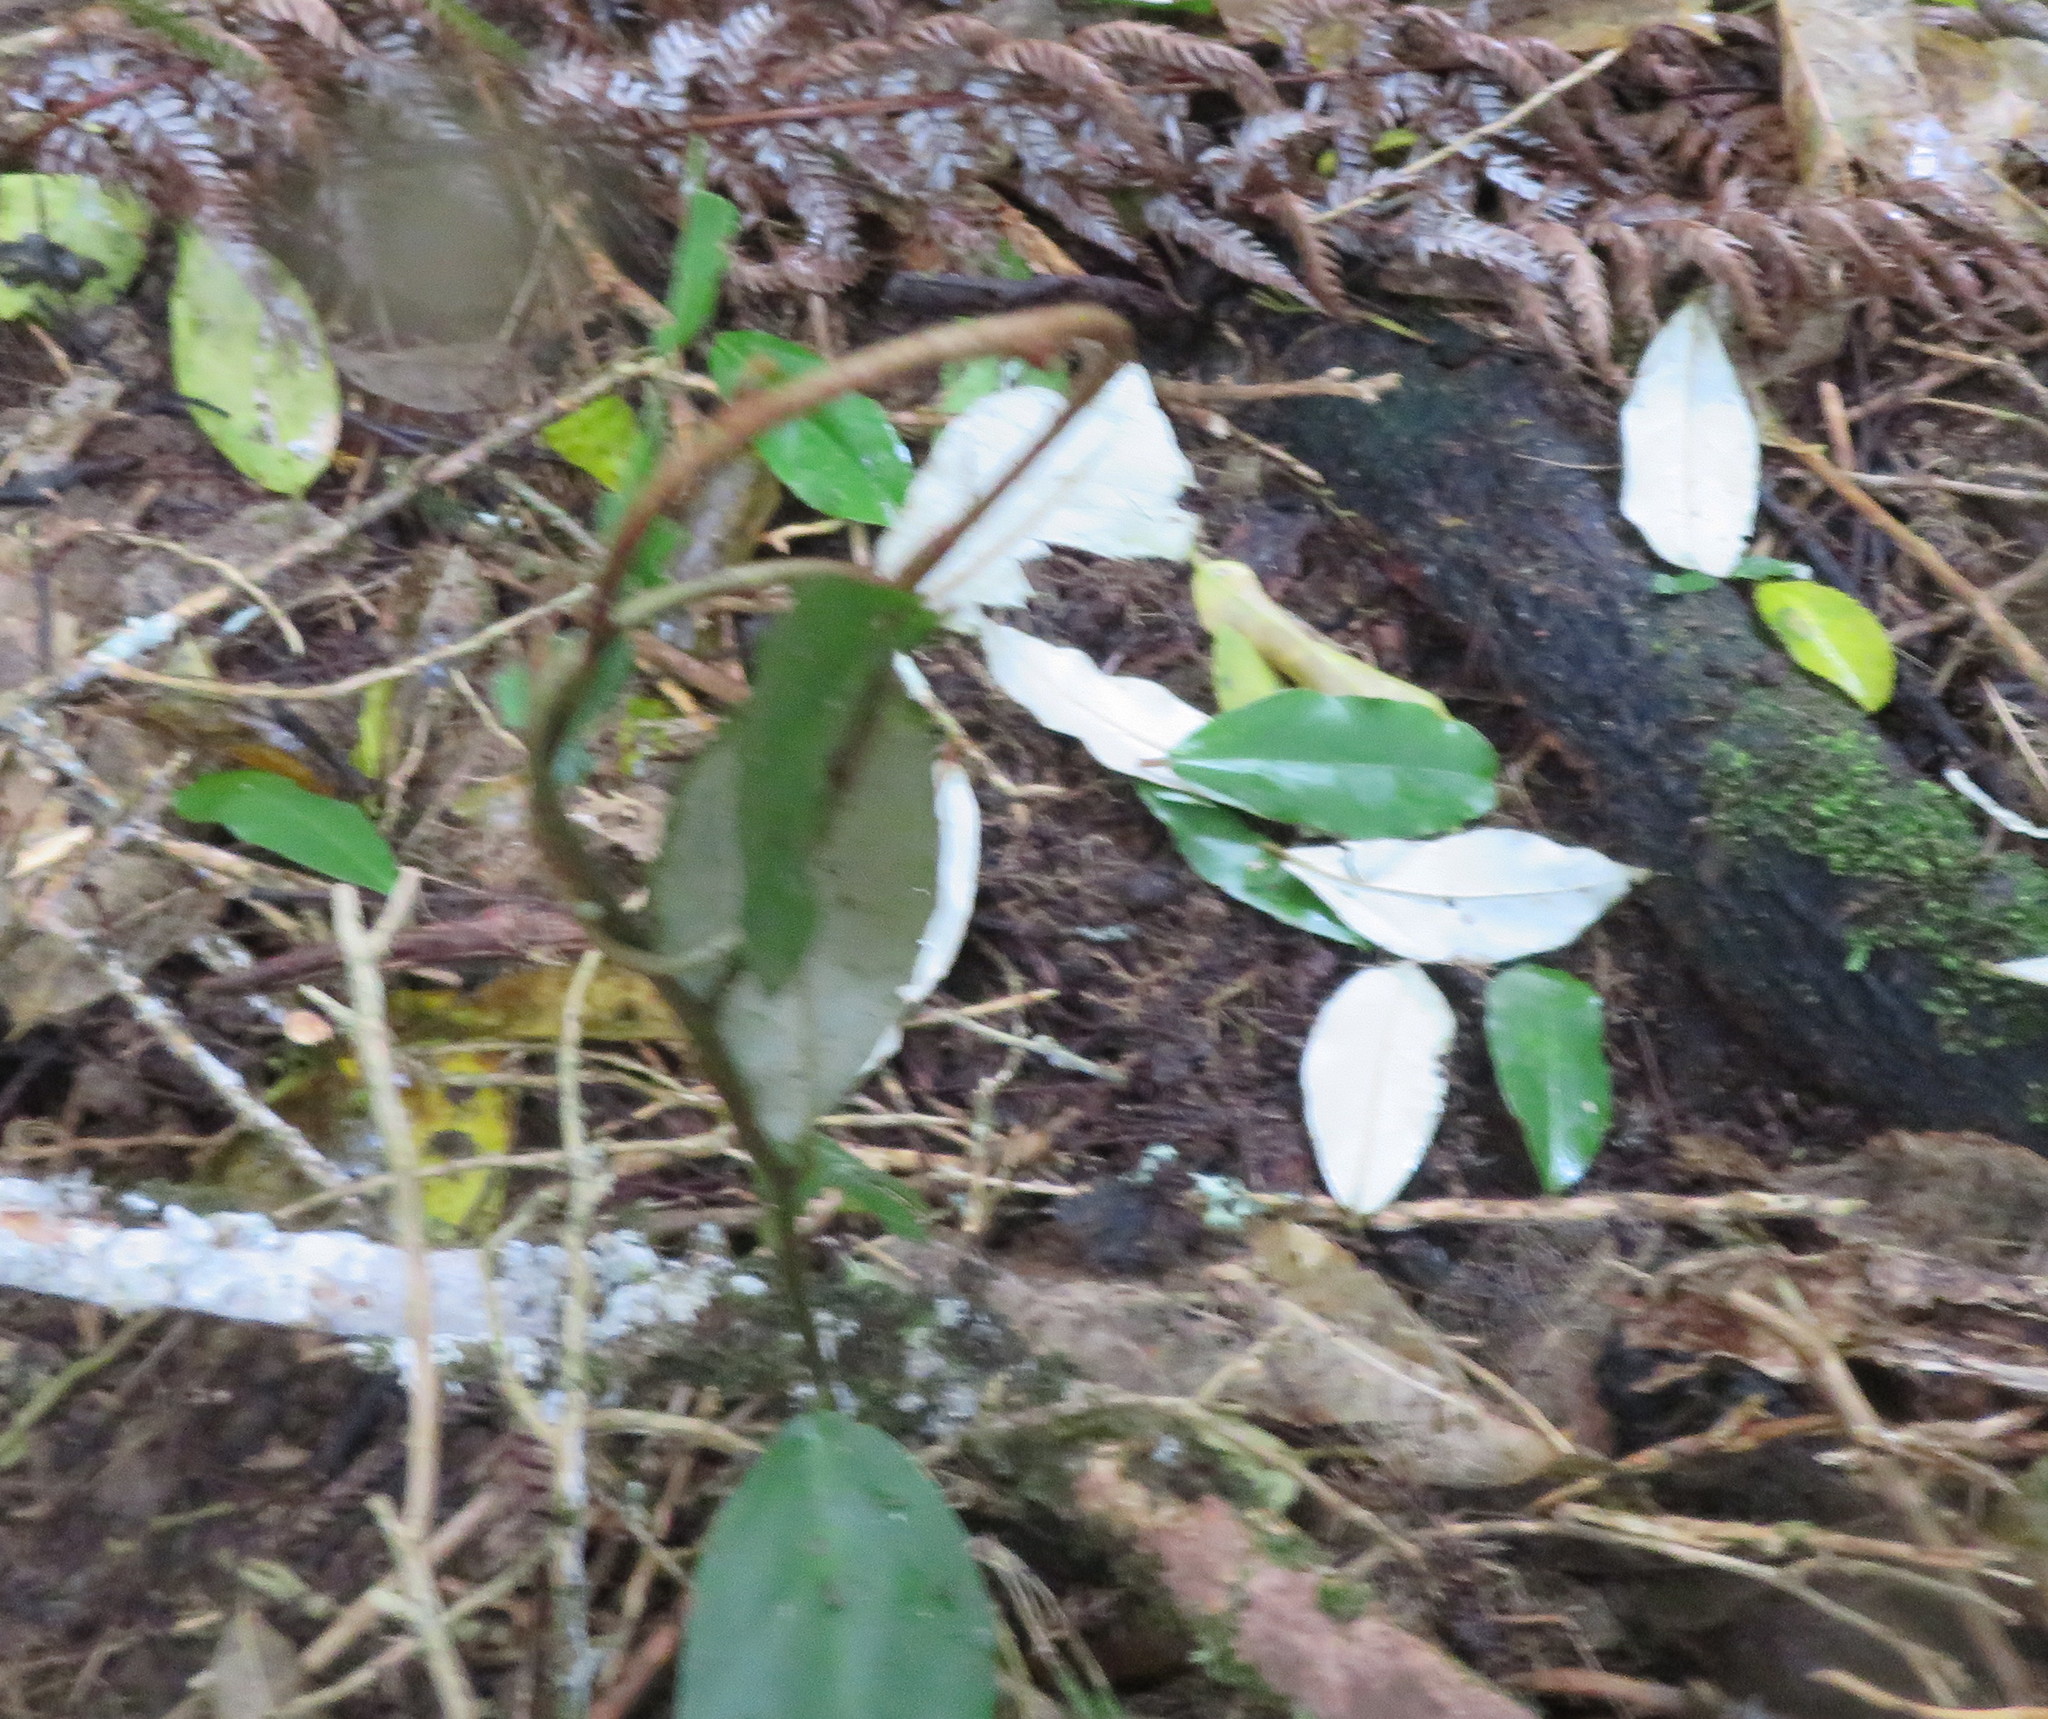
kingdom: Plantae
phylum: Tracheophyta
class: Magnoliopsida
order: Rosales
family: Elaeagnaceae
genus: Elaeagnus
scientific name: Elaeagnus reflexa
